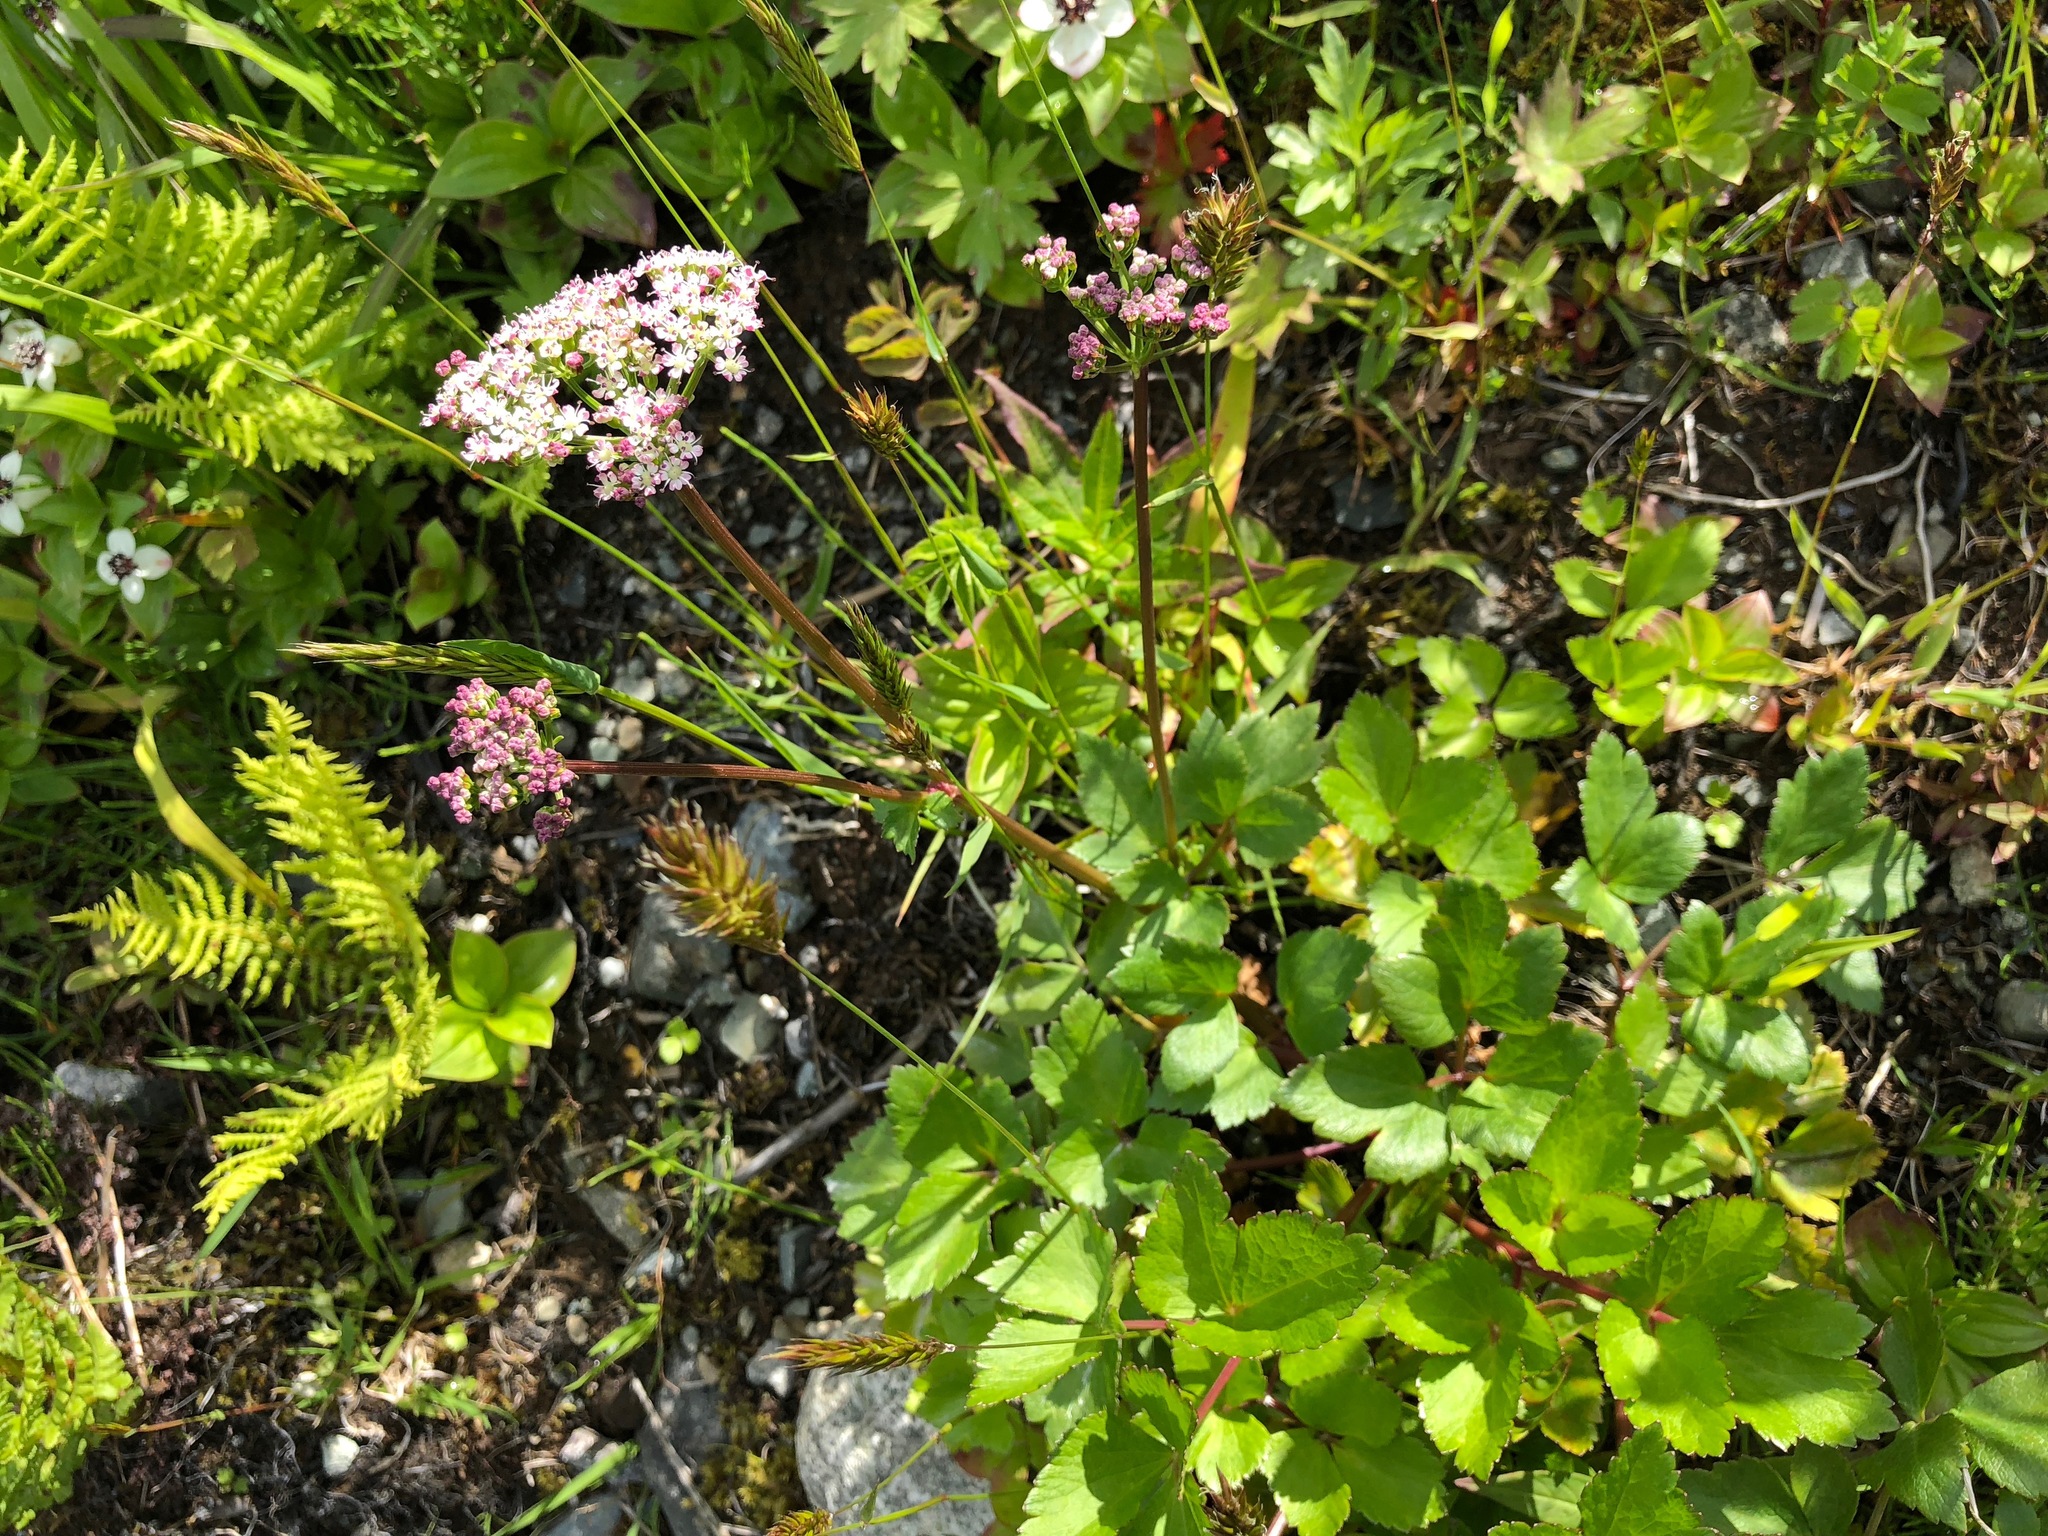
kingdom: Plantae
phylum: Tracheophyta
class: Magnoliopsida
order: Apiales
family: Apiaceae
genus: Ligusticum
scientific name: Ligusticum scothicum
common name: Beach lovage
